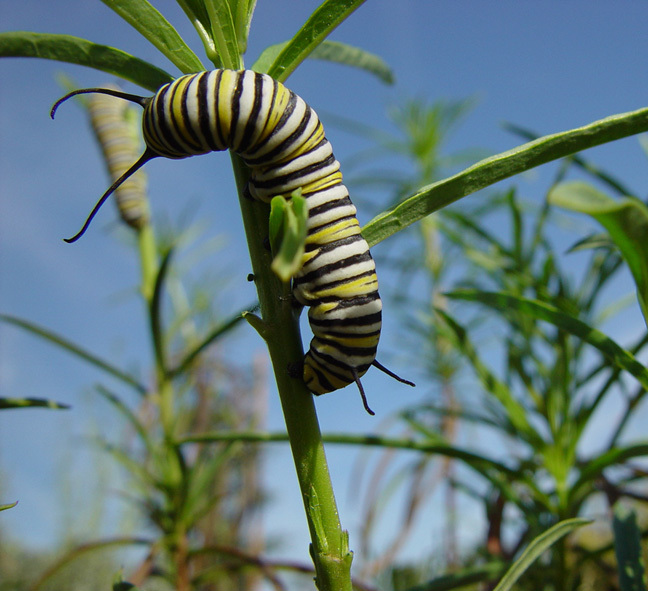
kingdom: Animalia
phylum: Arthropoda
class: Insecta
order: Lepidoptera
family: Nymphalidae
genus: Danaus
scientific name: Danaus plexippus
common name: Monarch
